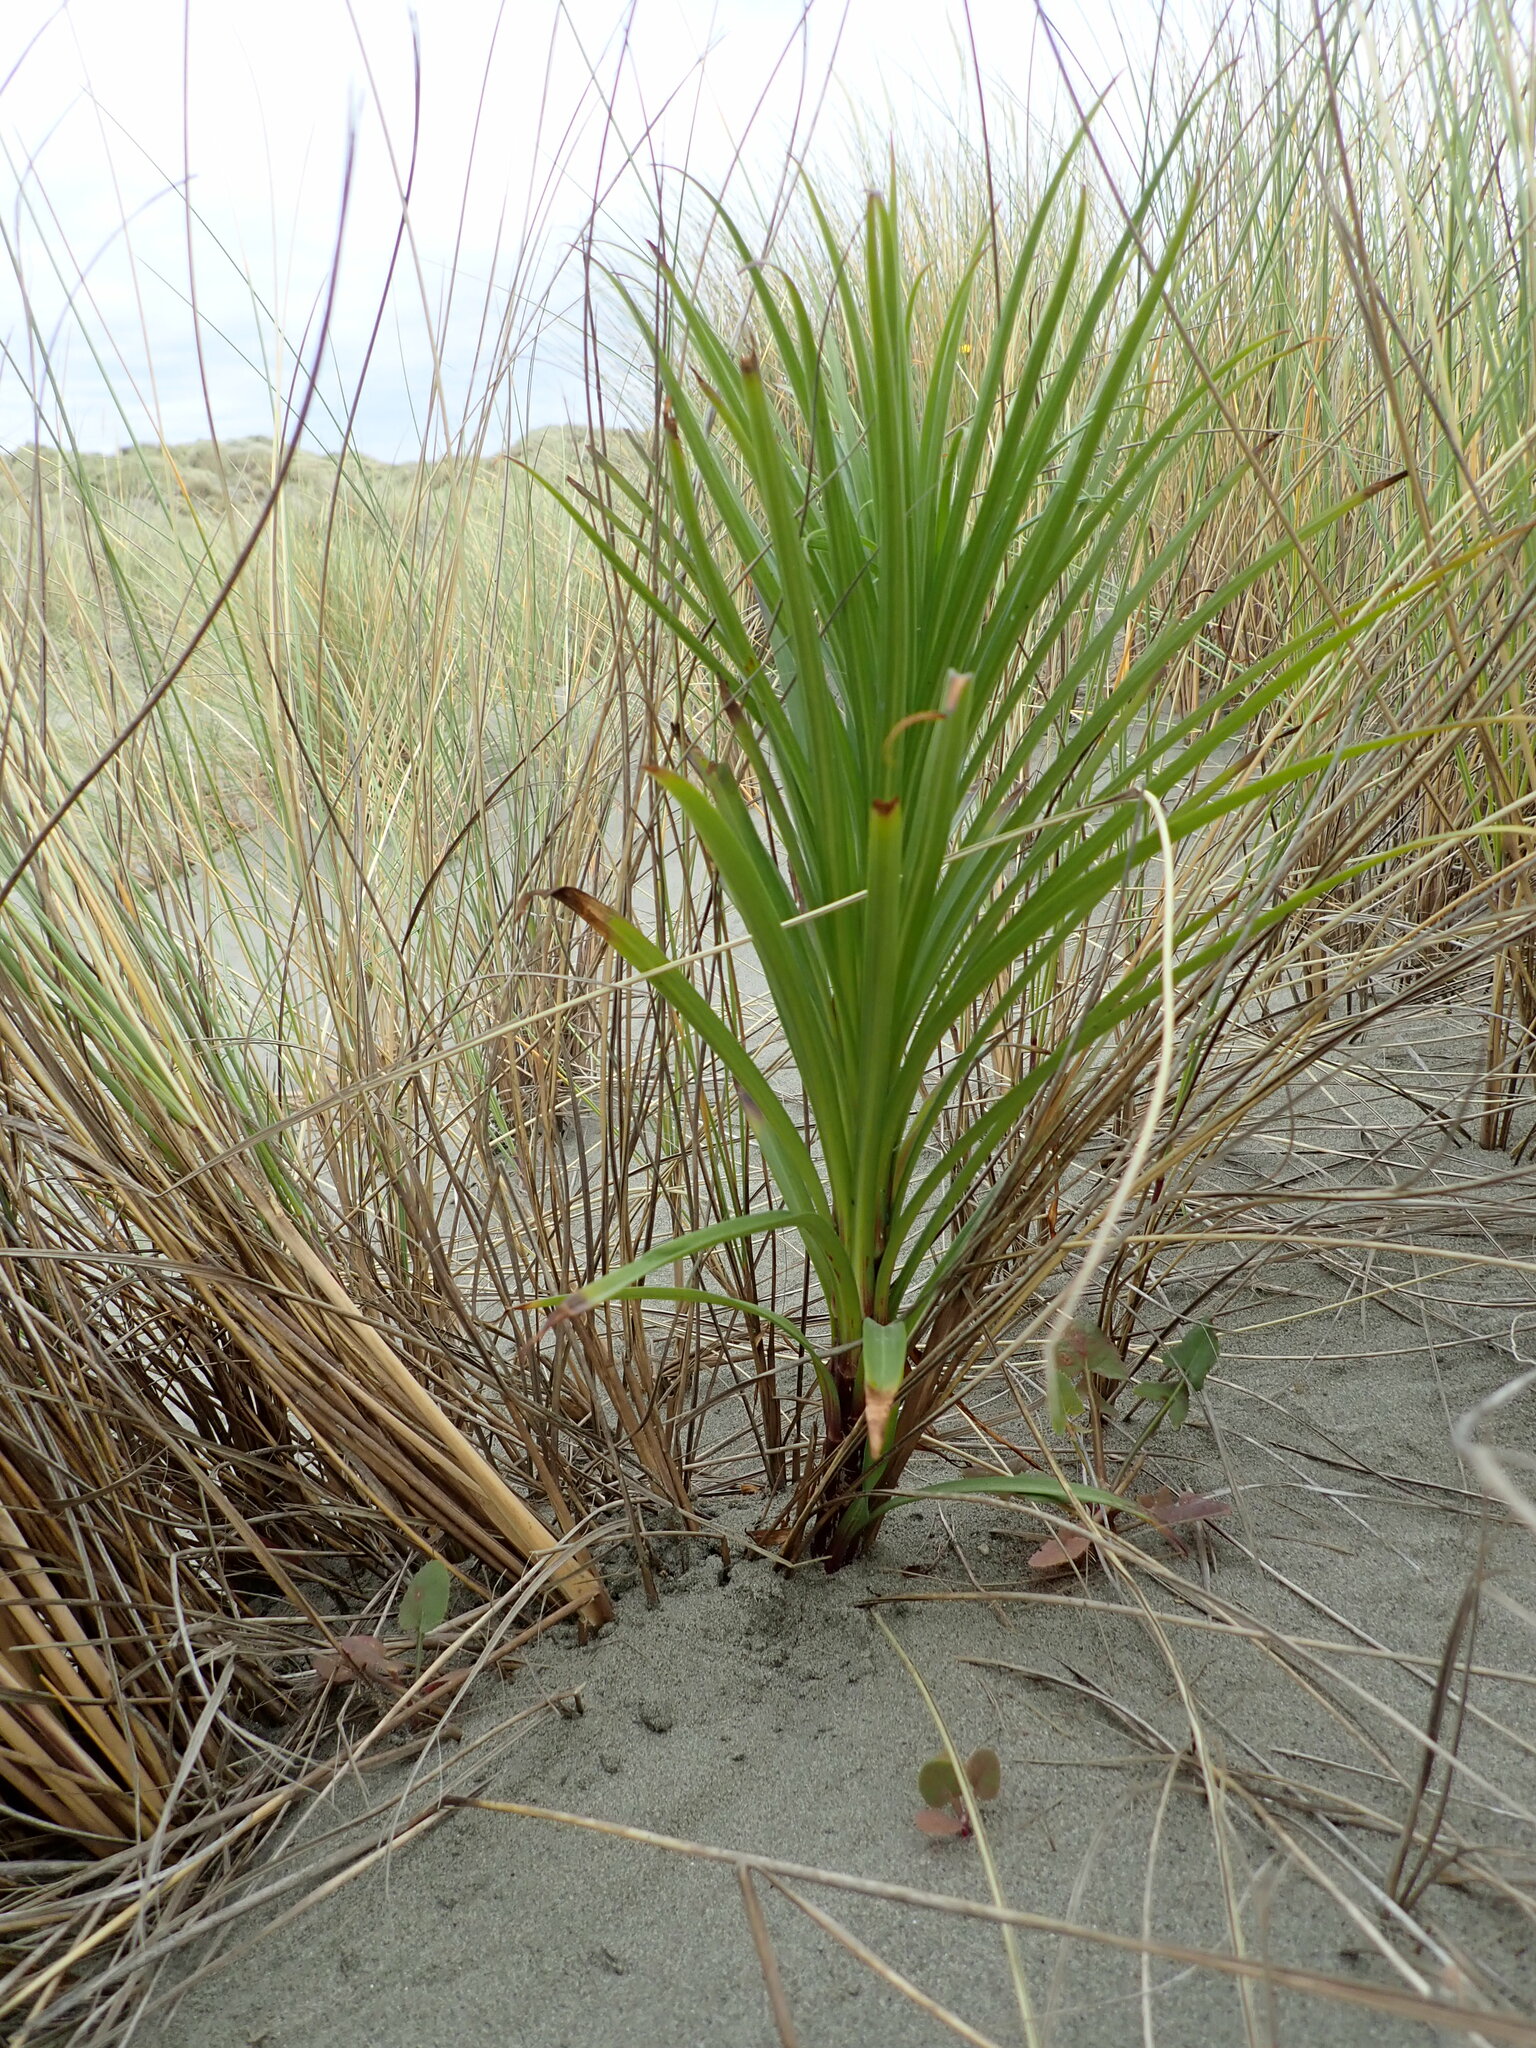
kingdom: Plantae
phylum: Tracheophyta
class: Liliopsida
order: Liliales
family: Liliaceae
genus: Lilium
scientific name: Lilium formosanum
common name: Formosa lily
